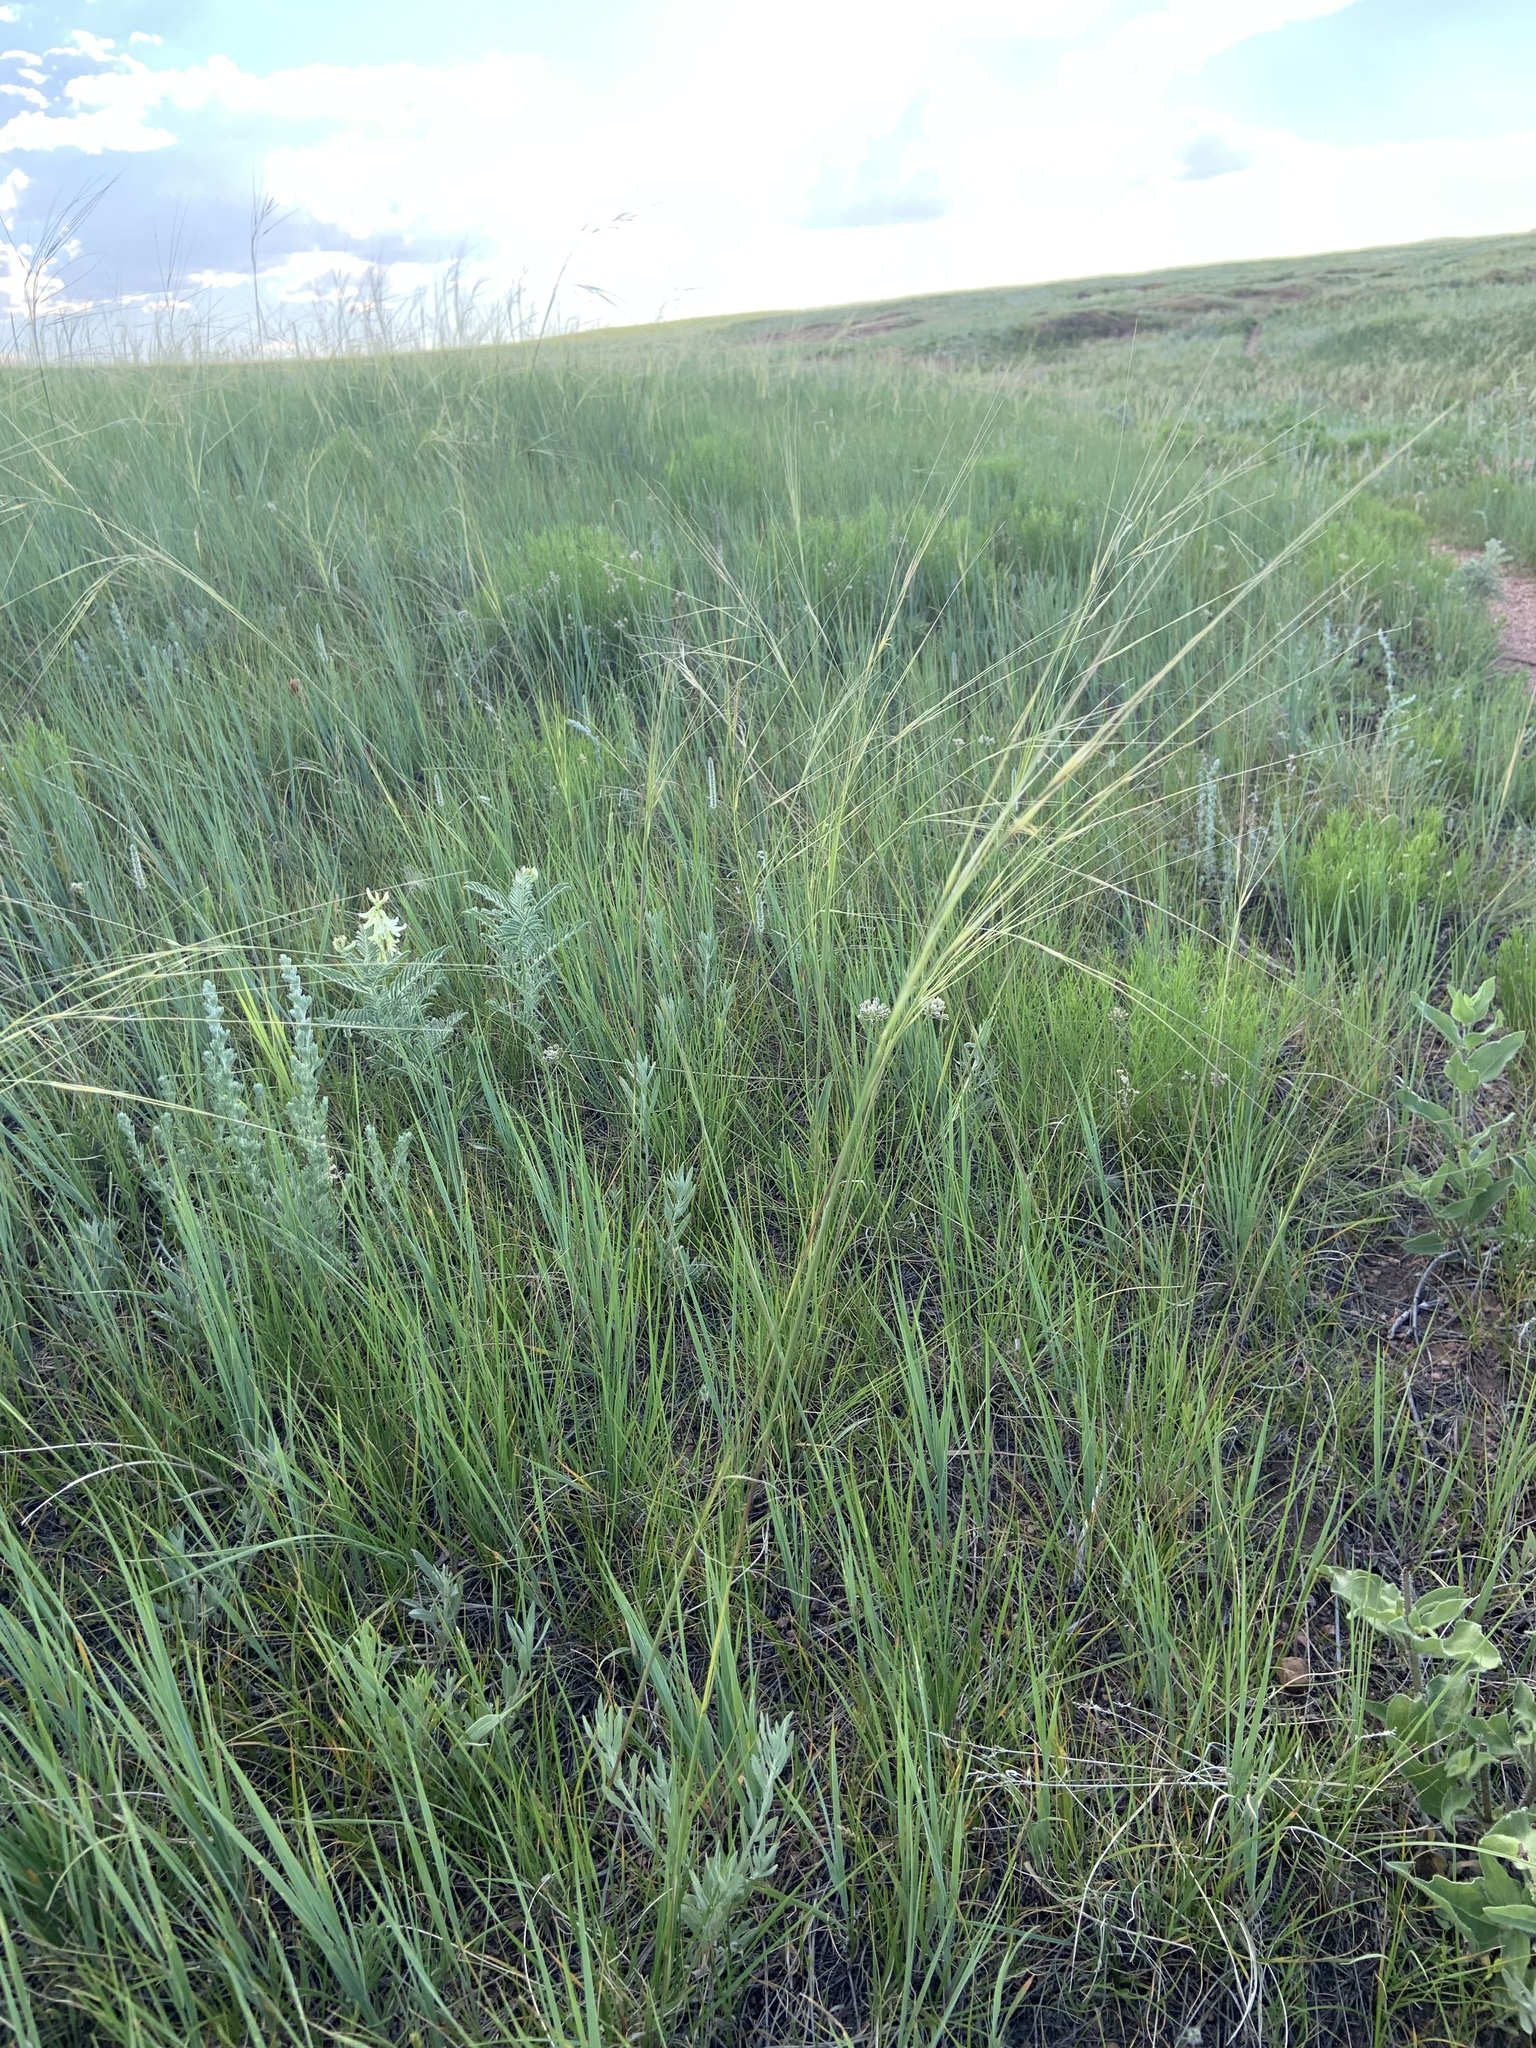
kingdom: Plantae
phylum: Tracheophyta
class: Liliopsida
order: Poales
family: Poaceae
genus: Hesperostipa
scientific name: Hesperostipa comata
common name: Needle-and-thread grass
